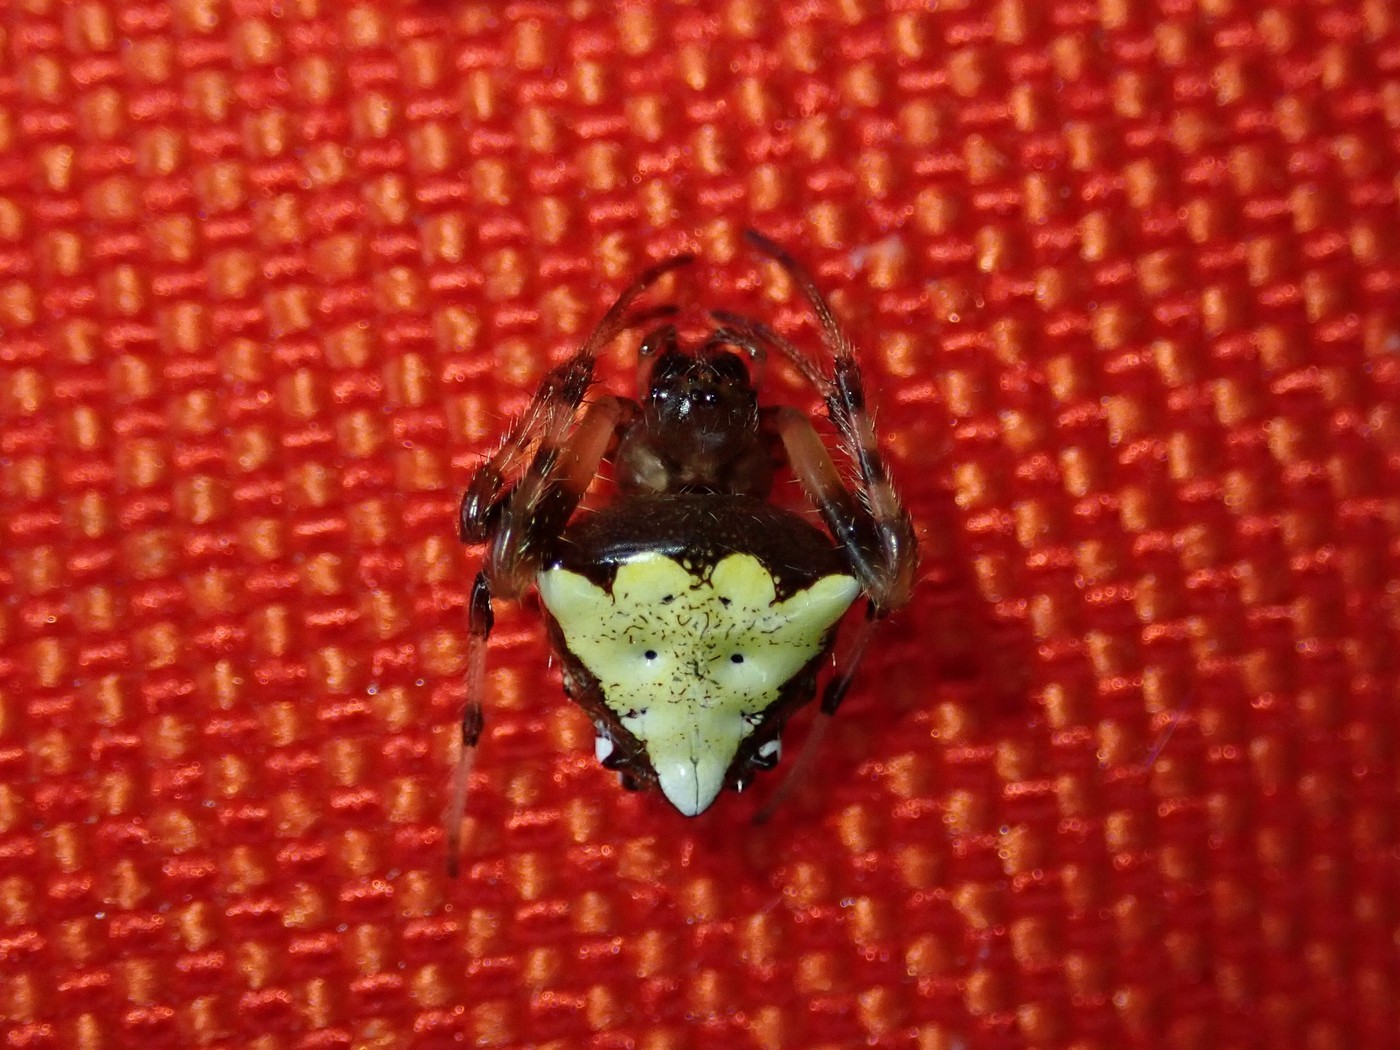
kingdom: Animalia
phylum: Arthropoda
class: Arachnida
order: Araneae
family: Araneidae
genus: Verrucosa
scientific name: Verrucosa arenata
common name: Orb weavers
